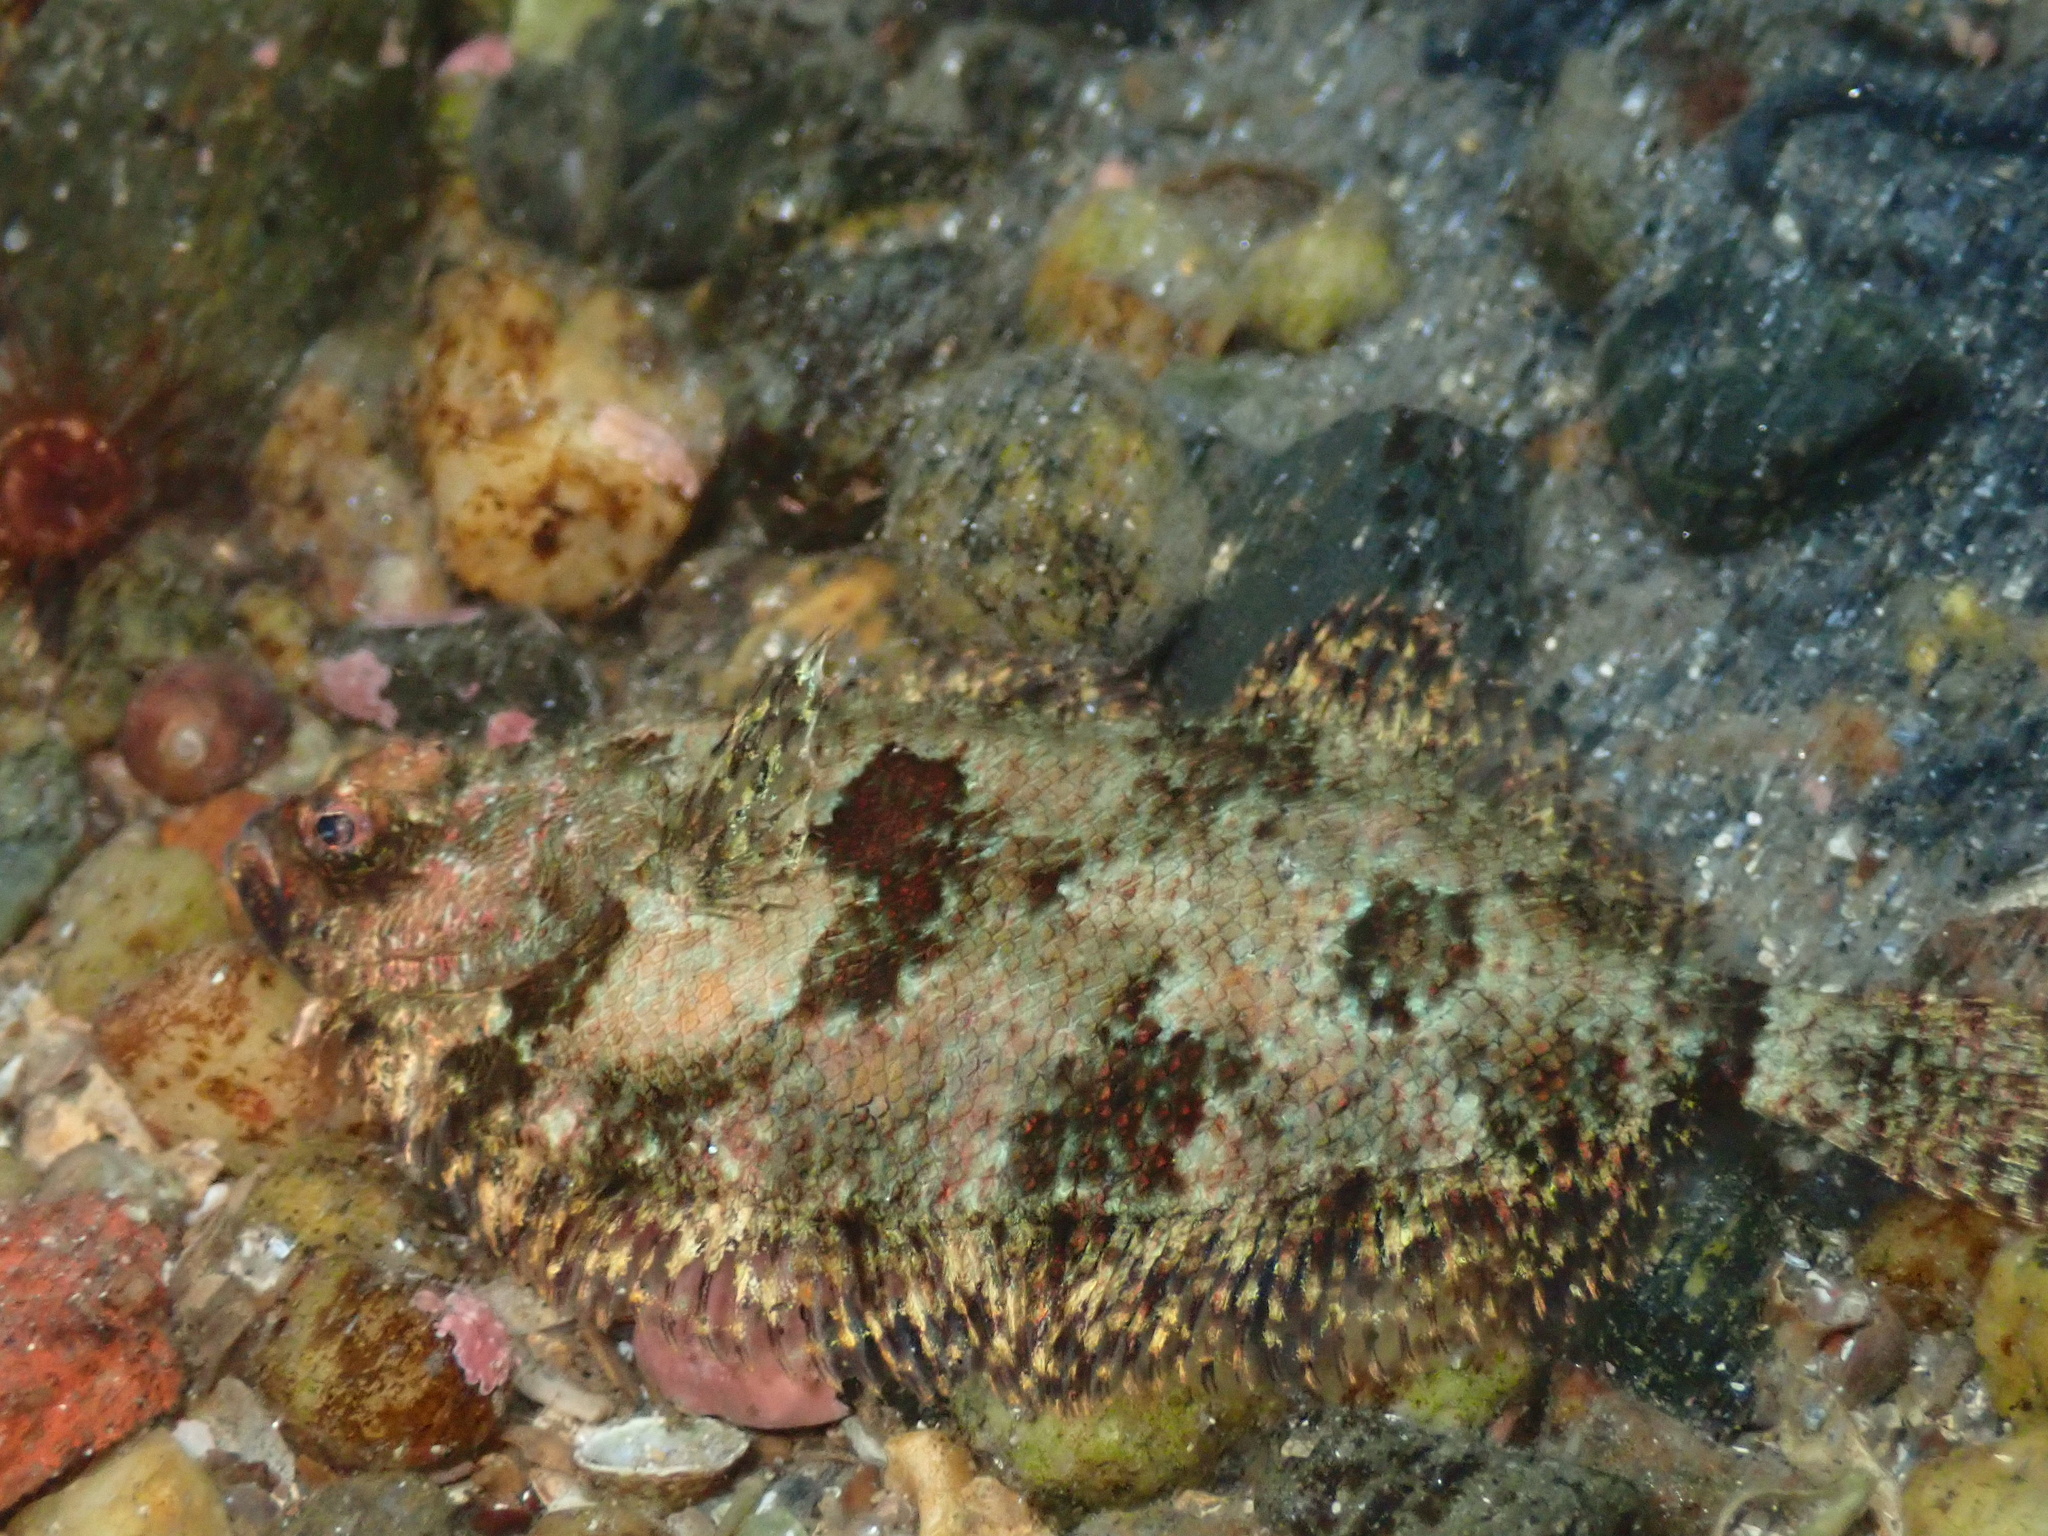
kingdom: Animalia
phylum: Chordata
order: Pleuronectiformes
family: Scophthalmidae
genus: Phrynorhombus
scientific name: Phrynorhombus norvegicus
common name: Norwegian topknot
